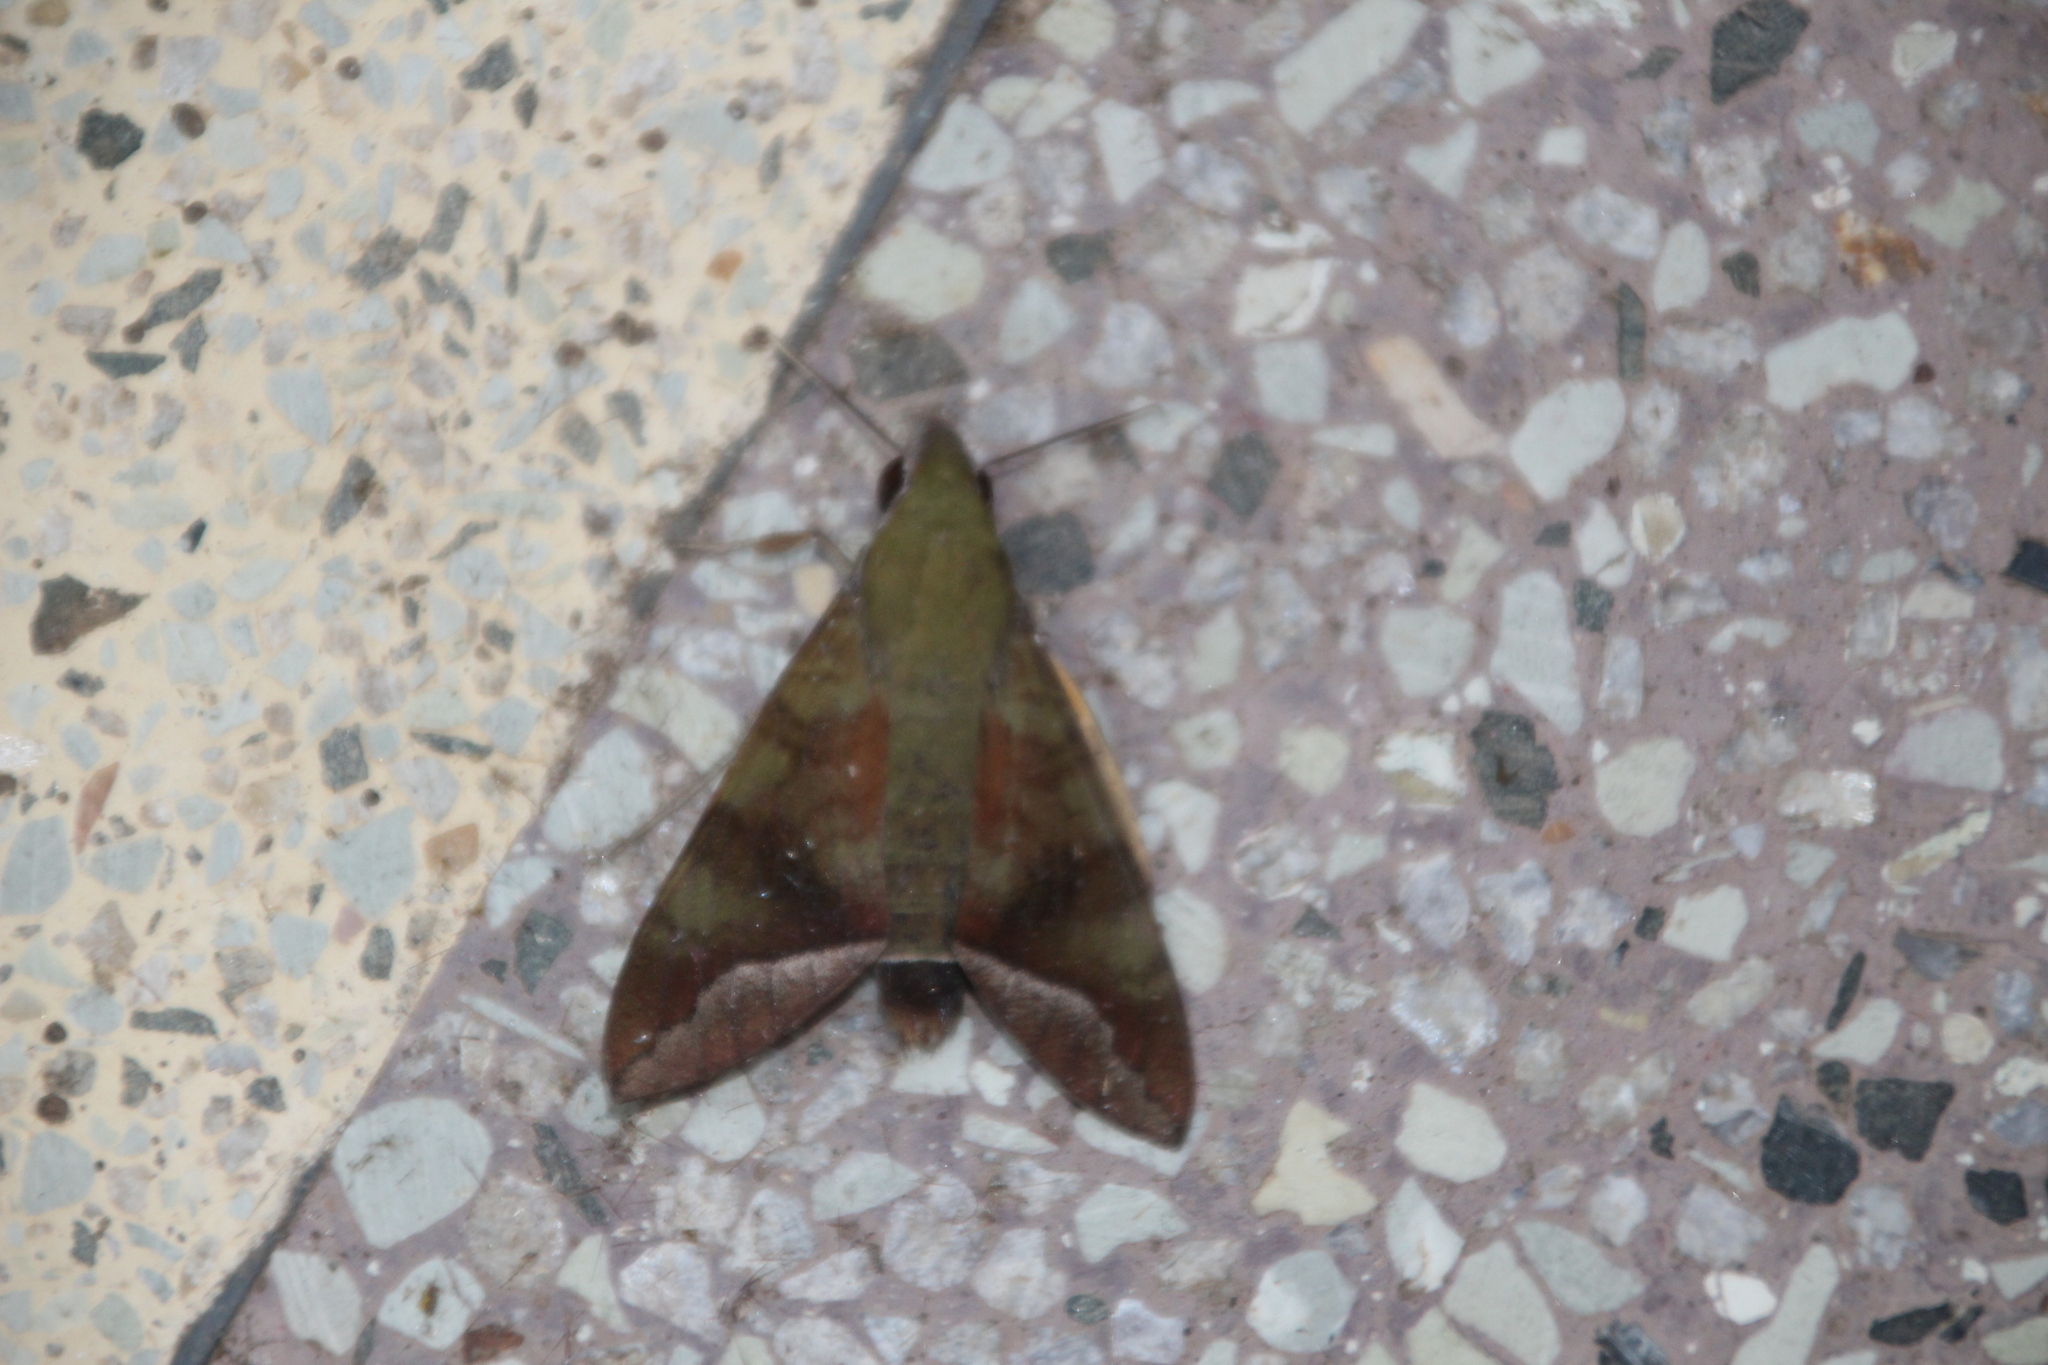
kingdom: Animalia
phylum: Arthropoda
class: Insecta
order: Lepidoptera
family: Sphingidae
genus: Nephele
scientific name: Nephele comma
